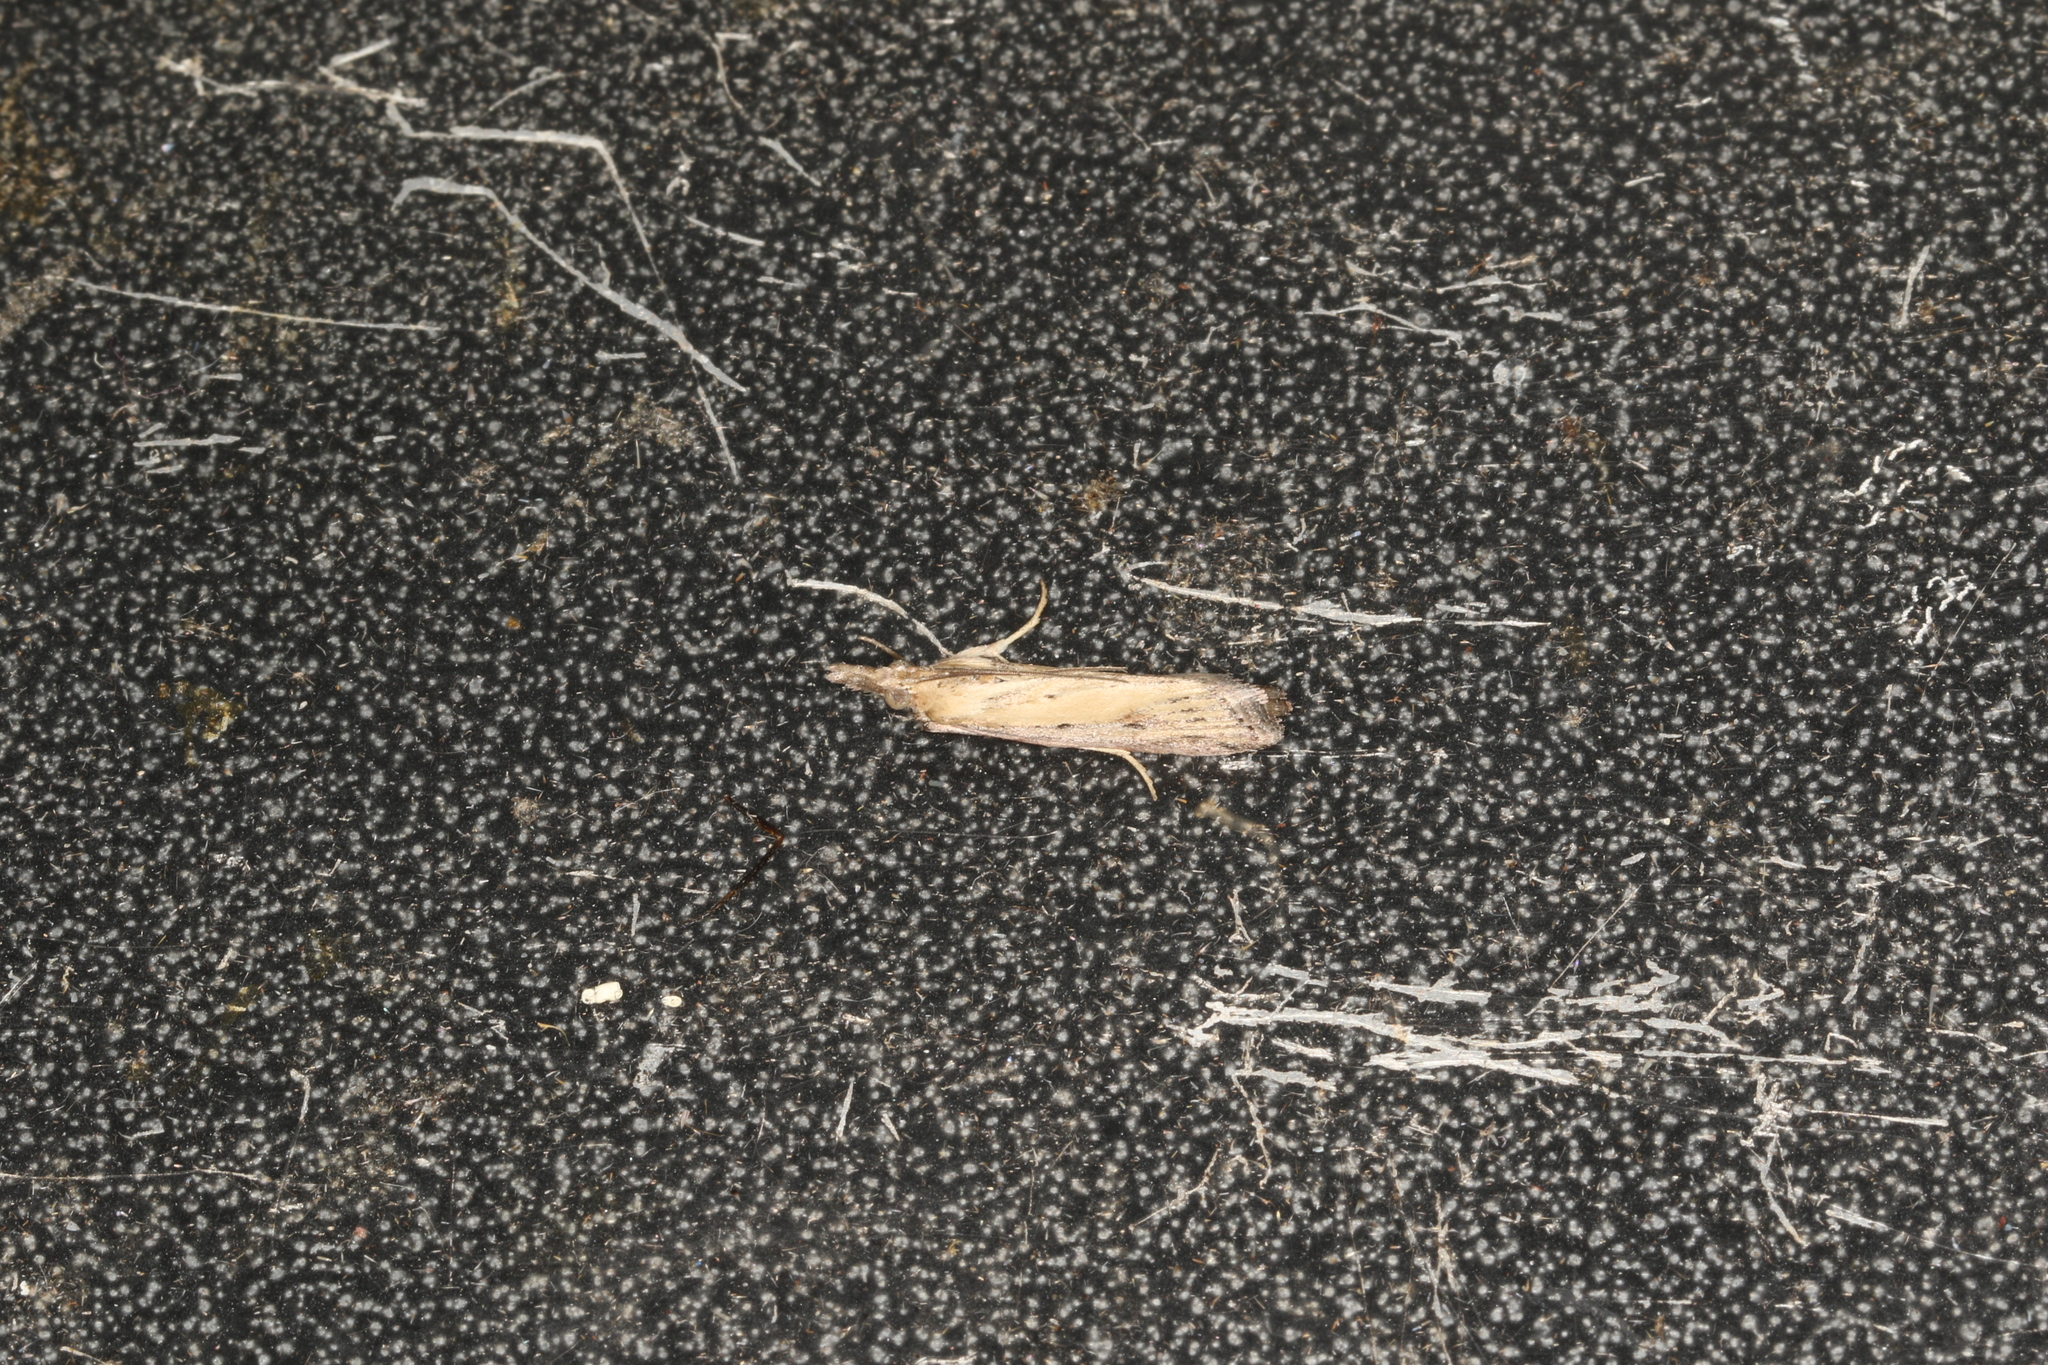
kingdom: Animalia
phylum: Arthropoda
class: Insecta
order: Lepidoptera
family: Pyralidae
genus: Faveria
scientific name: Faveria tritalis
